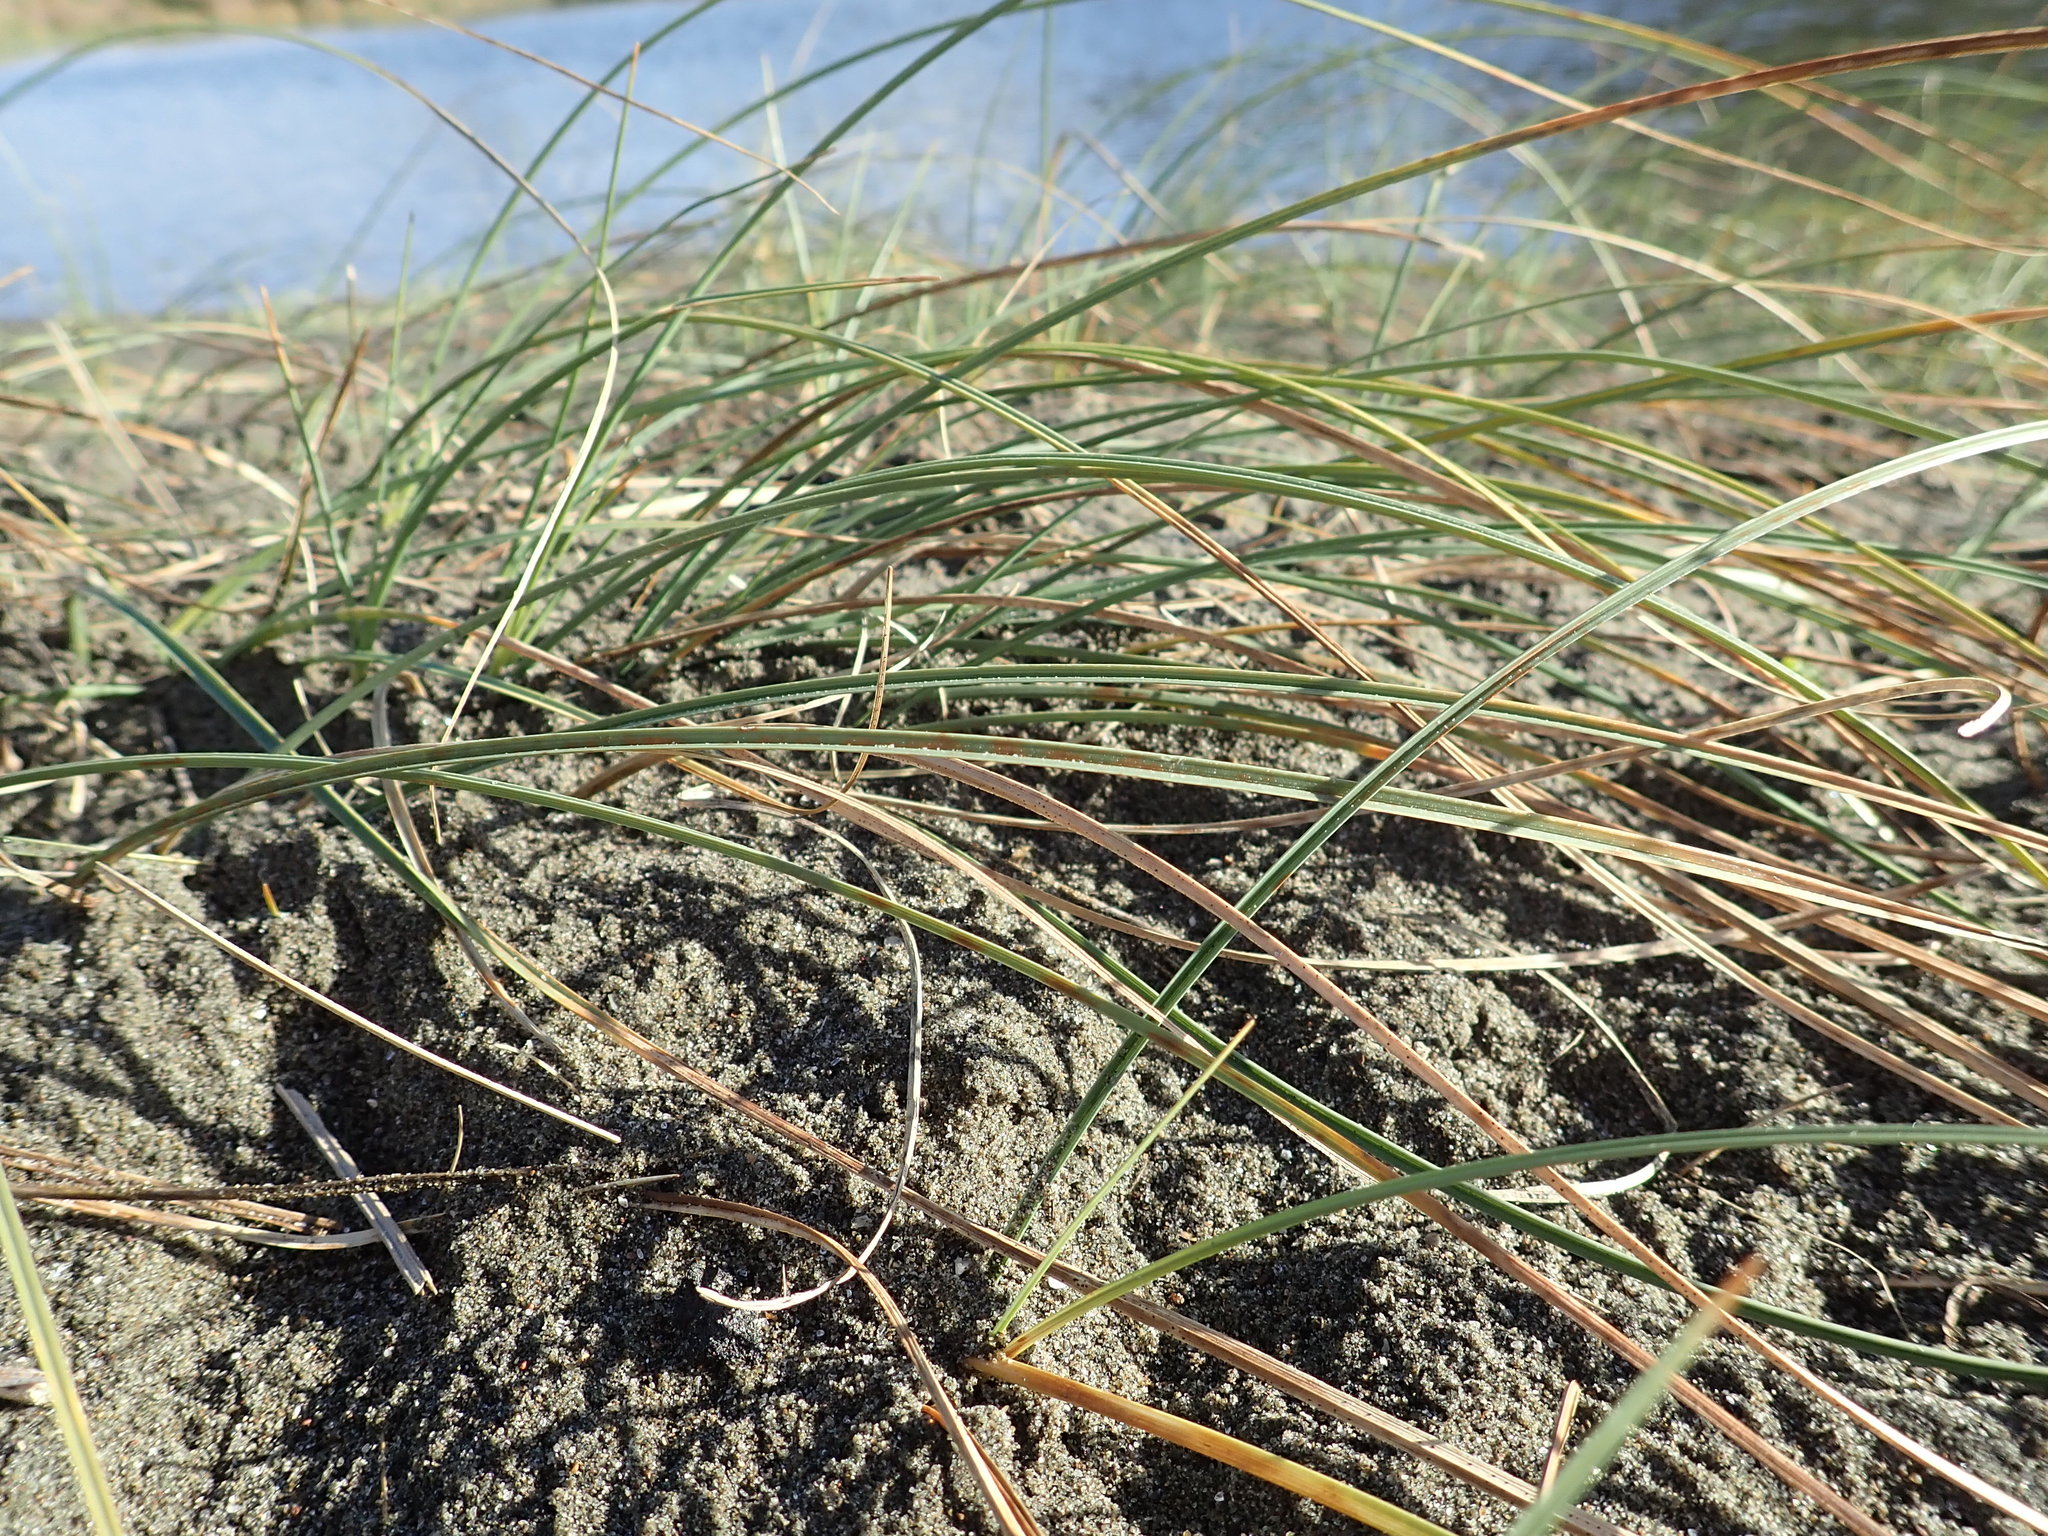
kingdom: Plantae
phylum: Tracheophyta
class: Liliopsida
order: Poales
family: Cyperaceae
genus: Carex
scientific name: Carex pumila
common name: Dwarf sedge
